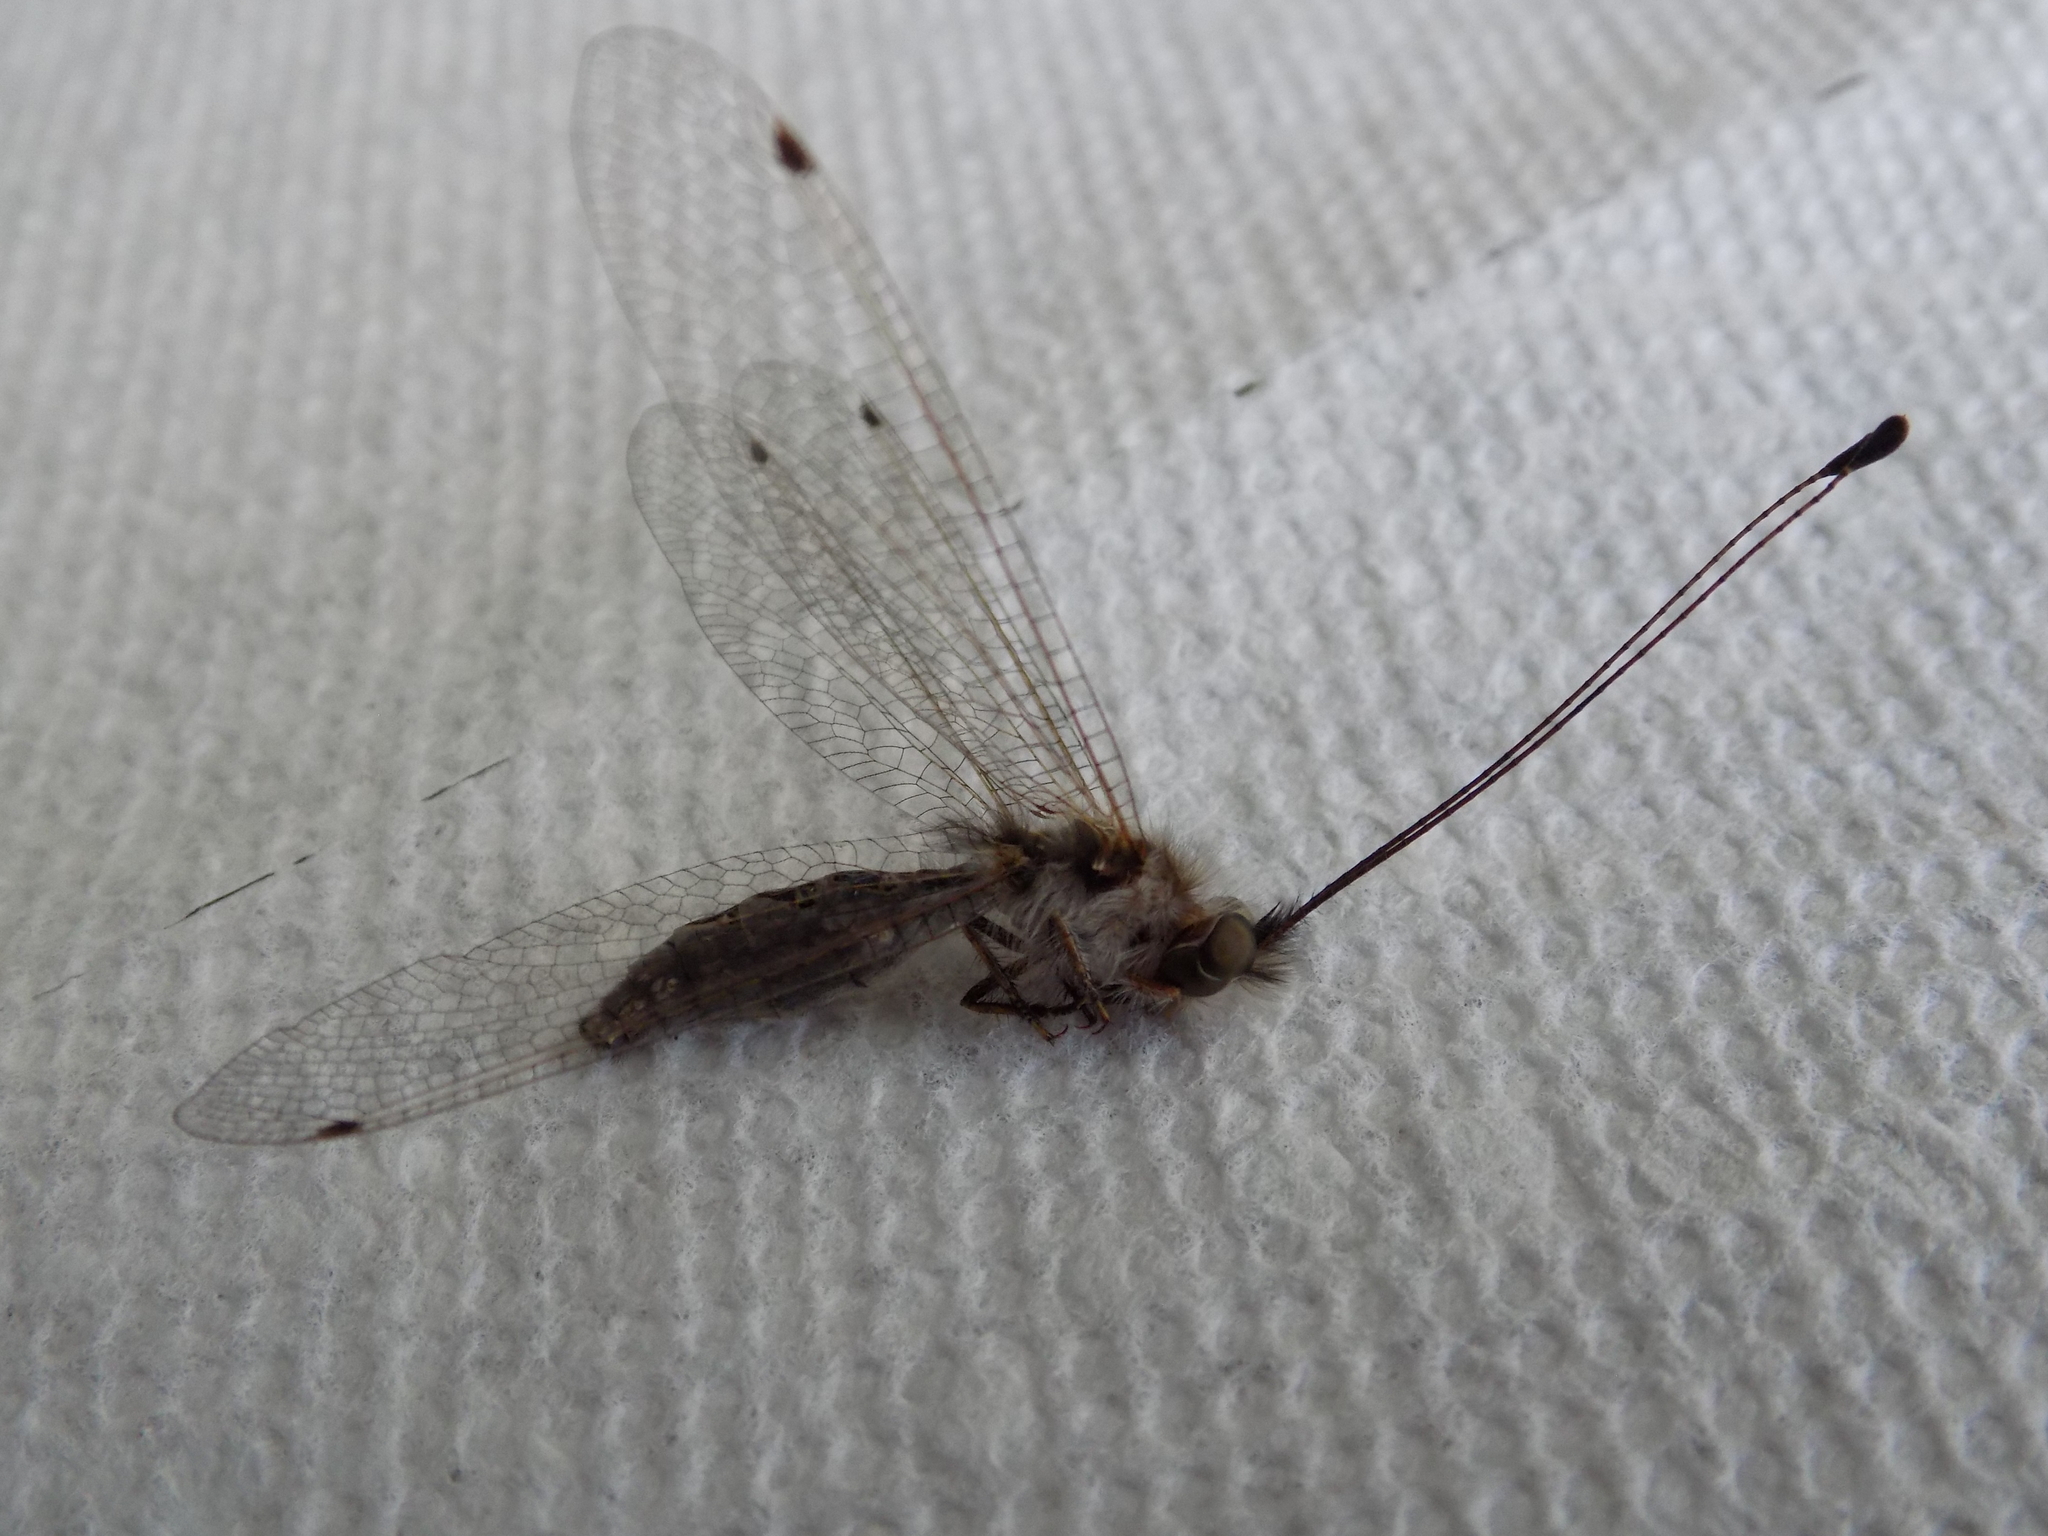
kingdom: Animalia
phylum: Arthropoda
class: Insecta
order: Neuroptera
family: Ascalaphidae
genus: Ululodes
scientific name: Ululodes macleayanus
